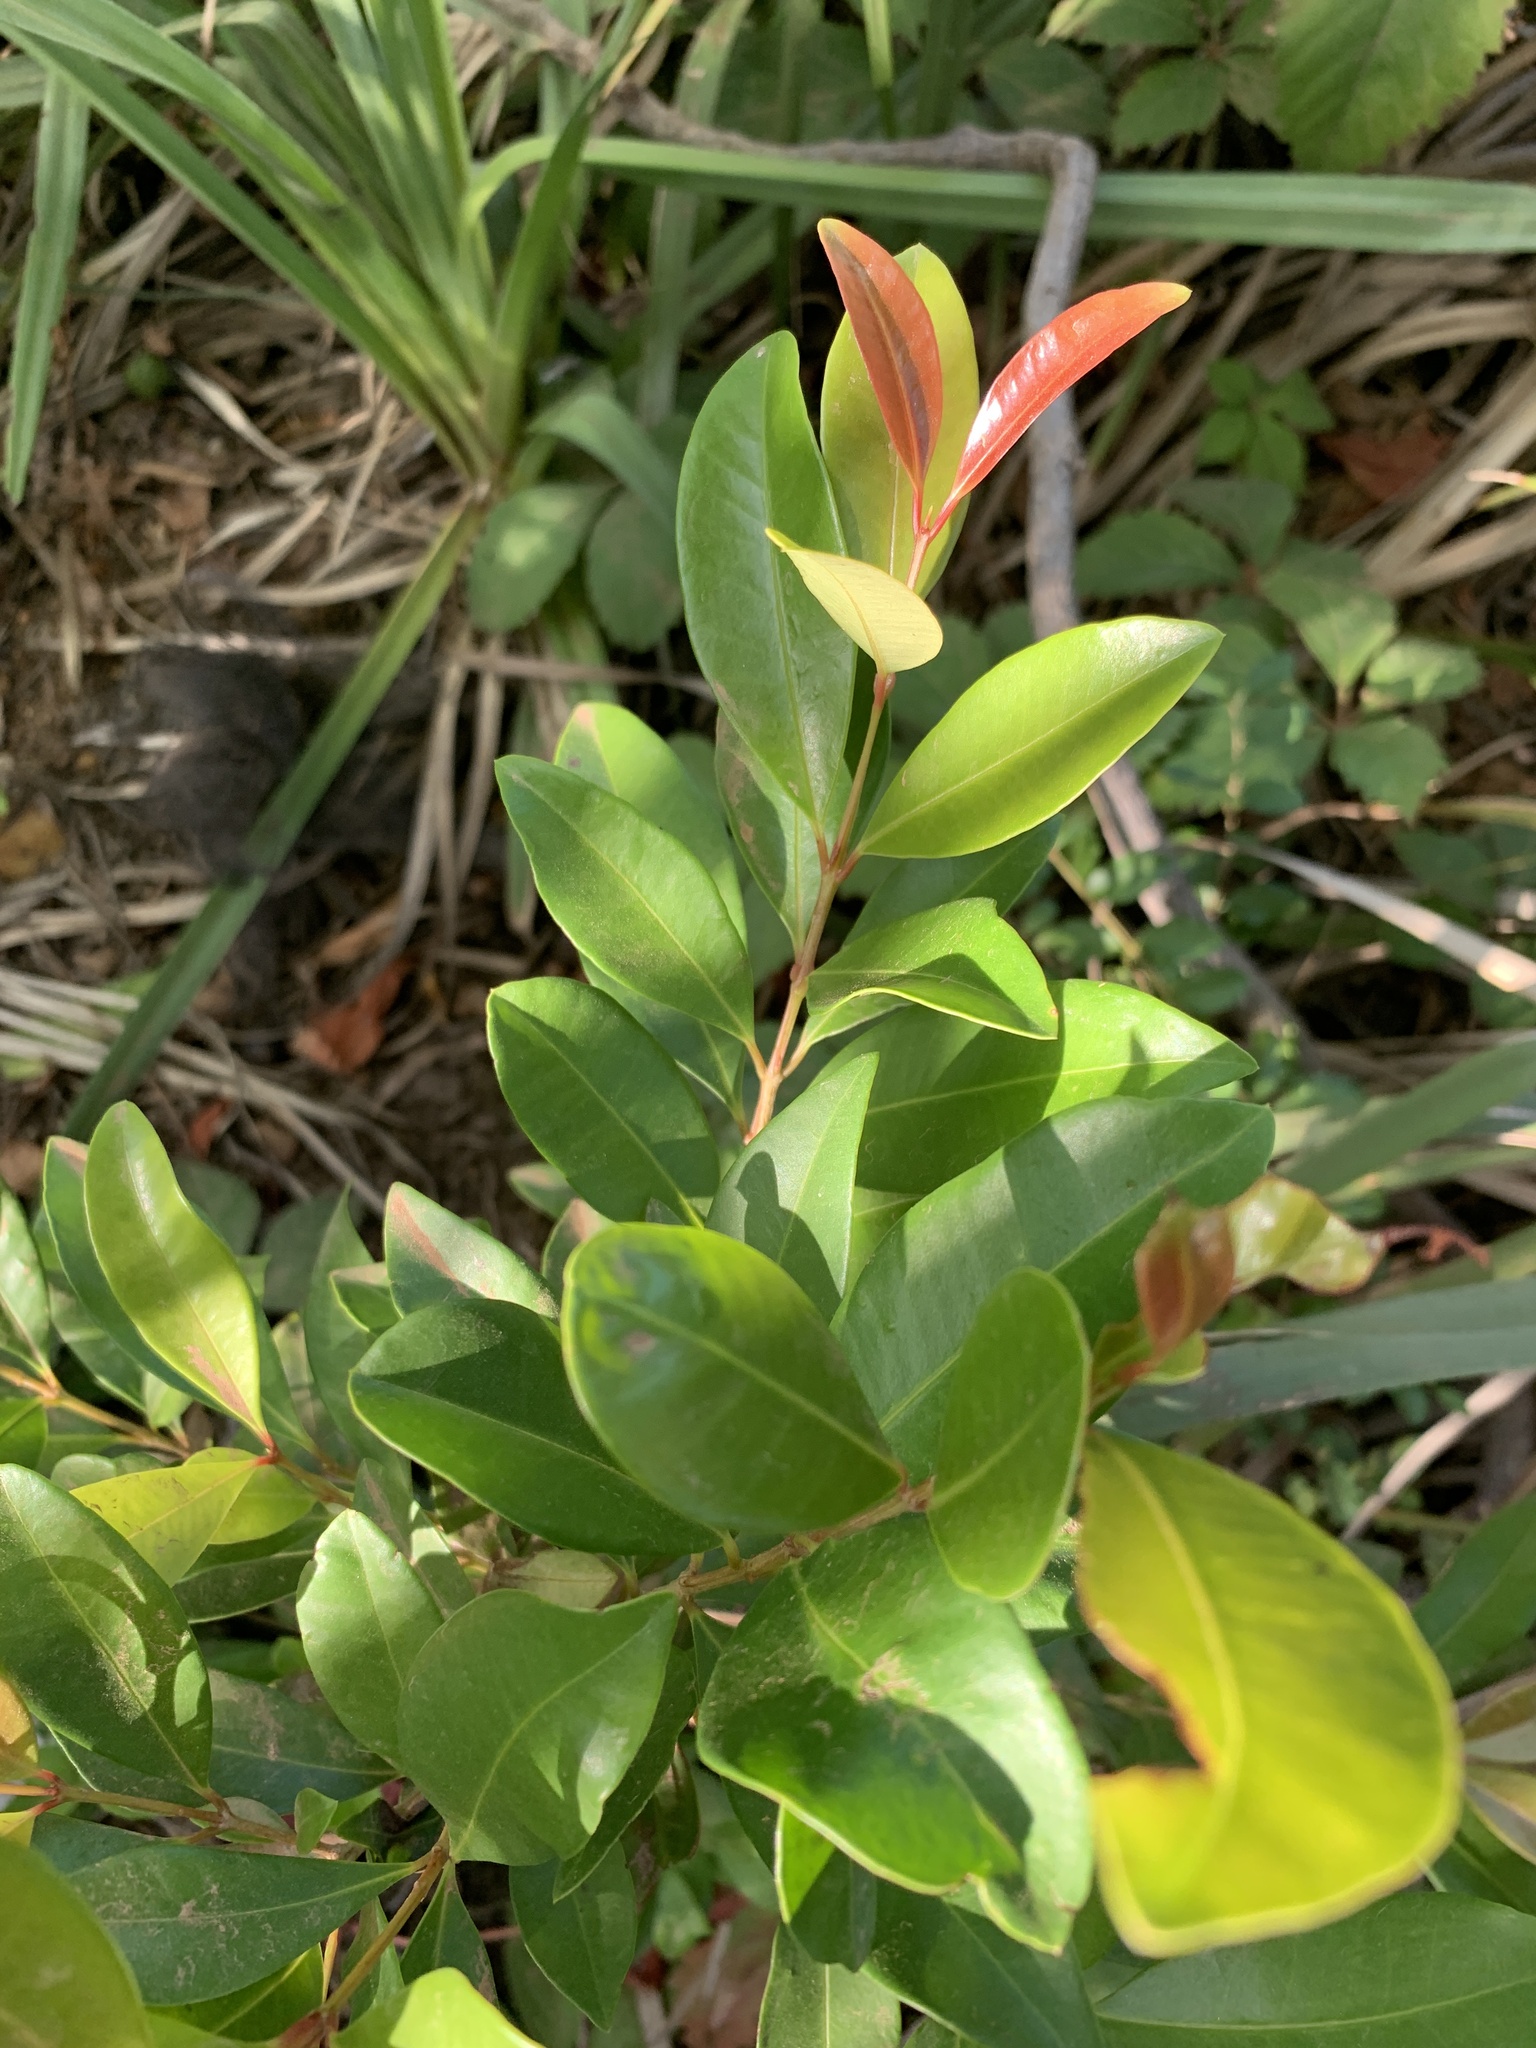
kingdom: Plantae
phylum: Tracheophyta
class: Magnoliopsida
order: Myrtales
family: Myrtaceae
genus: Syzygium
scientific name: Syzygium australe
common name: Australian brush-cherry
